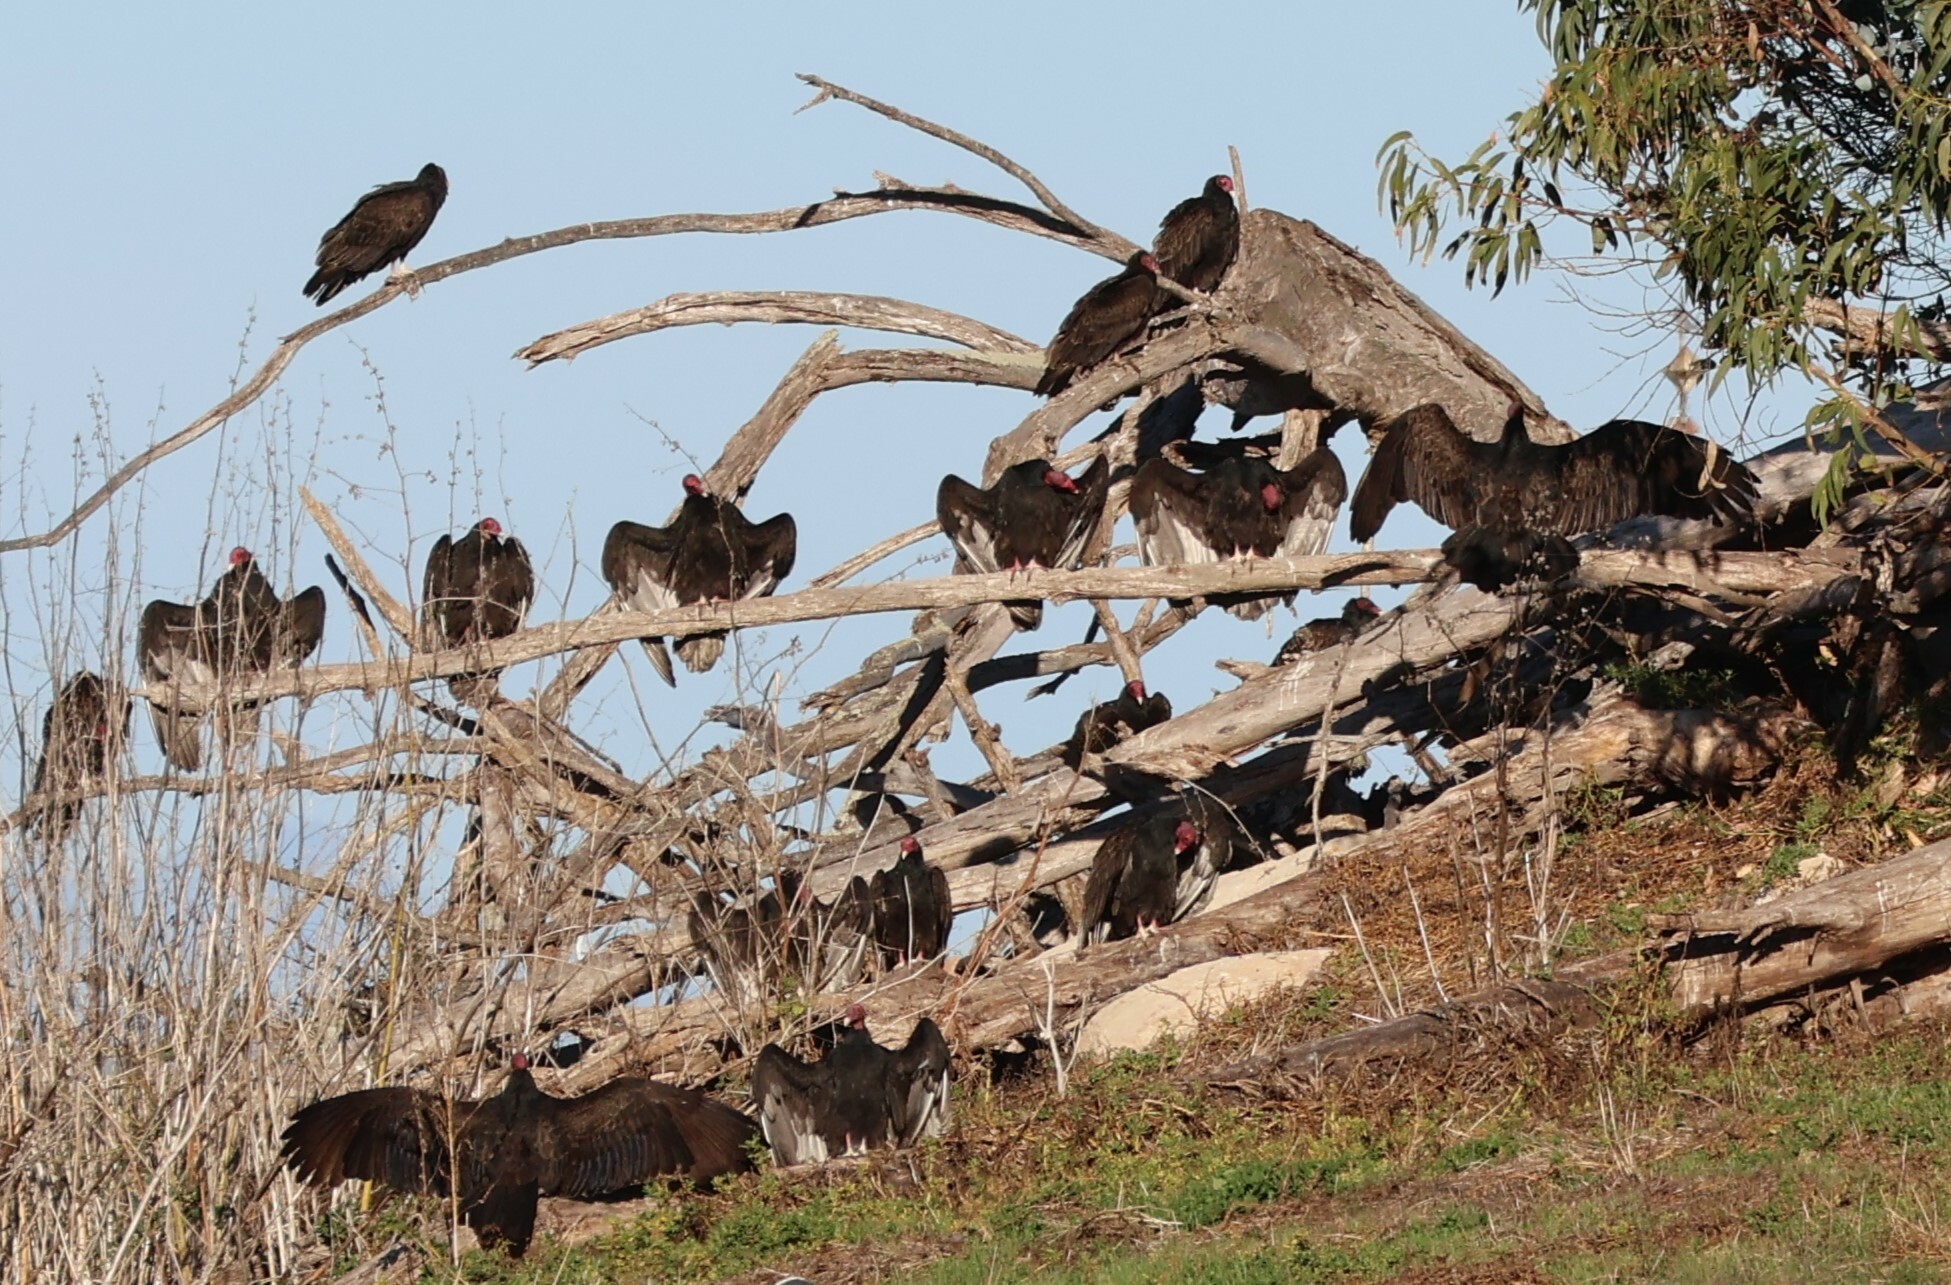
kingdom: Animalia
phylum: Chordata
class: Aves
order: Accipitriformes
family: Cathartidae
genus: Cathartes
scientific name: Cathartes aura
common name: Turkey vulture
